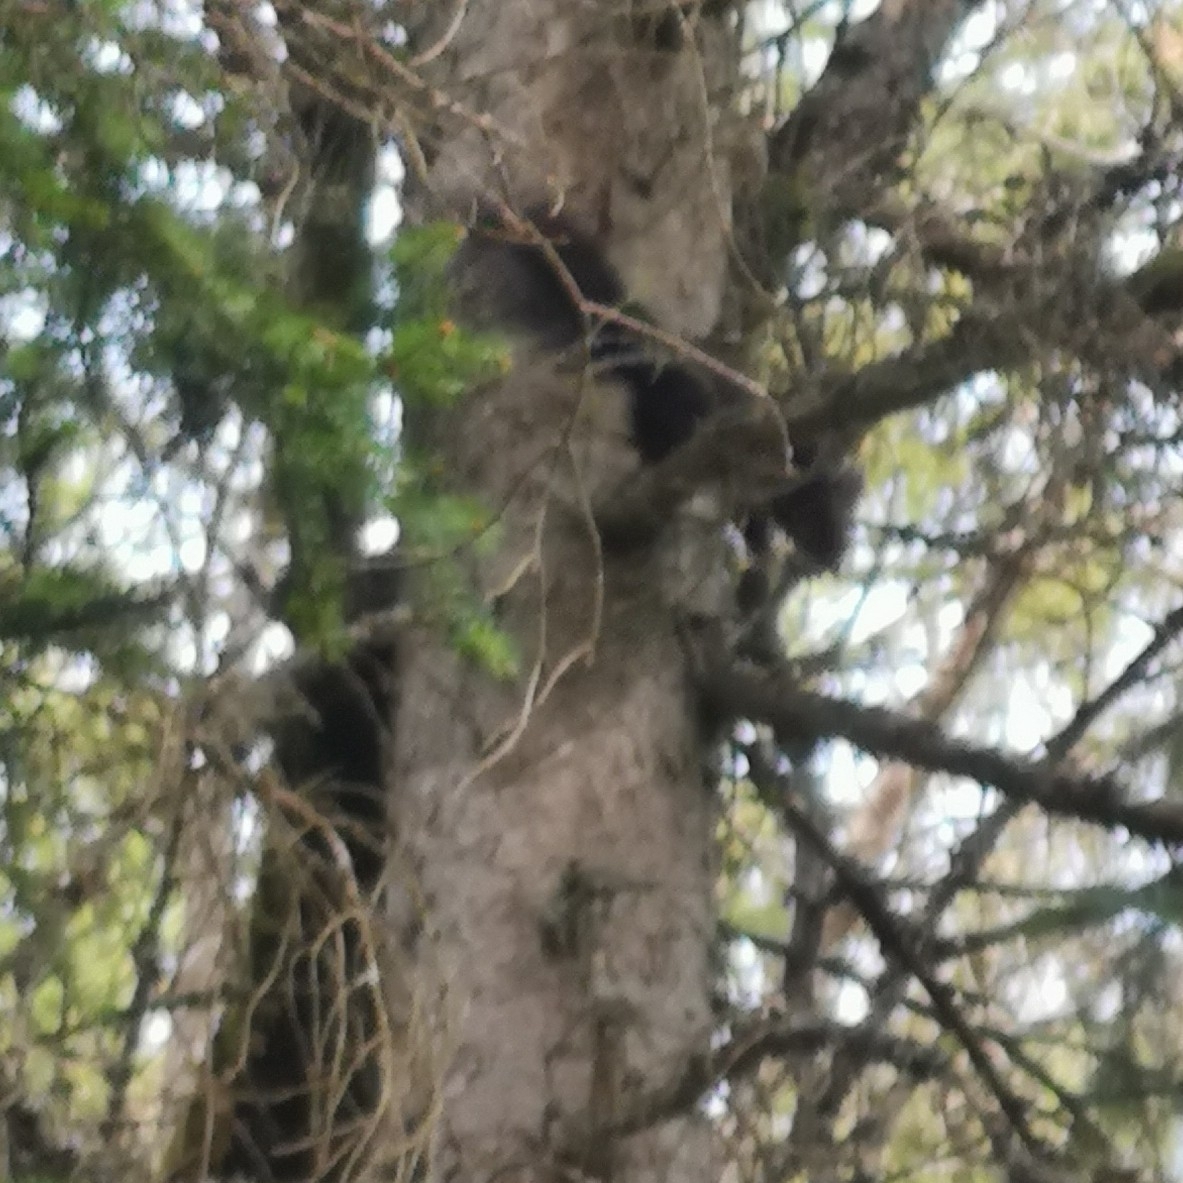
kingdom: Animalia
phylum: Chordata
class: Mammalia
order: Rodentia
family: Sciuridae
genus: Sciurus
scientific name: Sciurus vulgaris
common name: Eurasian red squirrel
